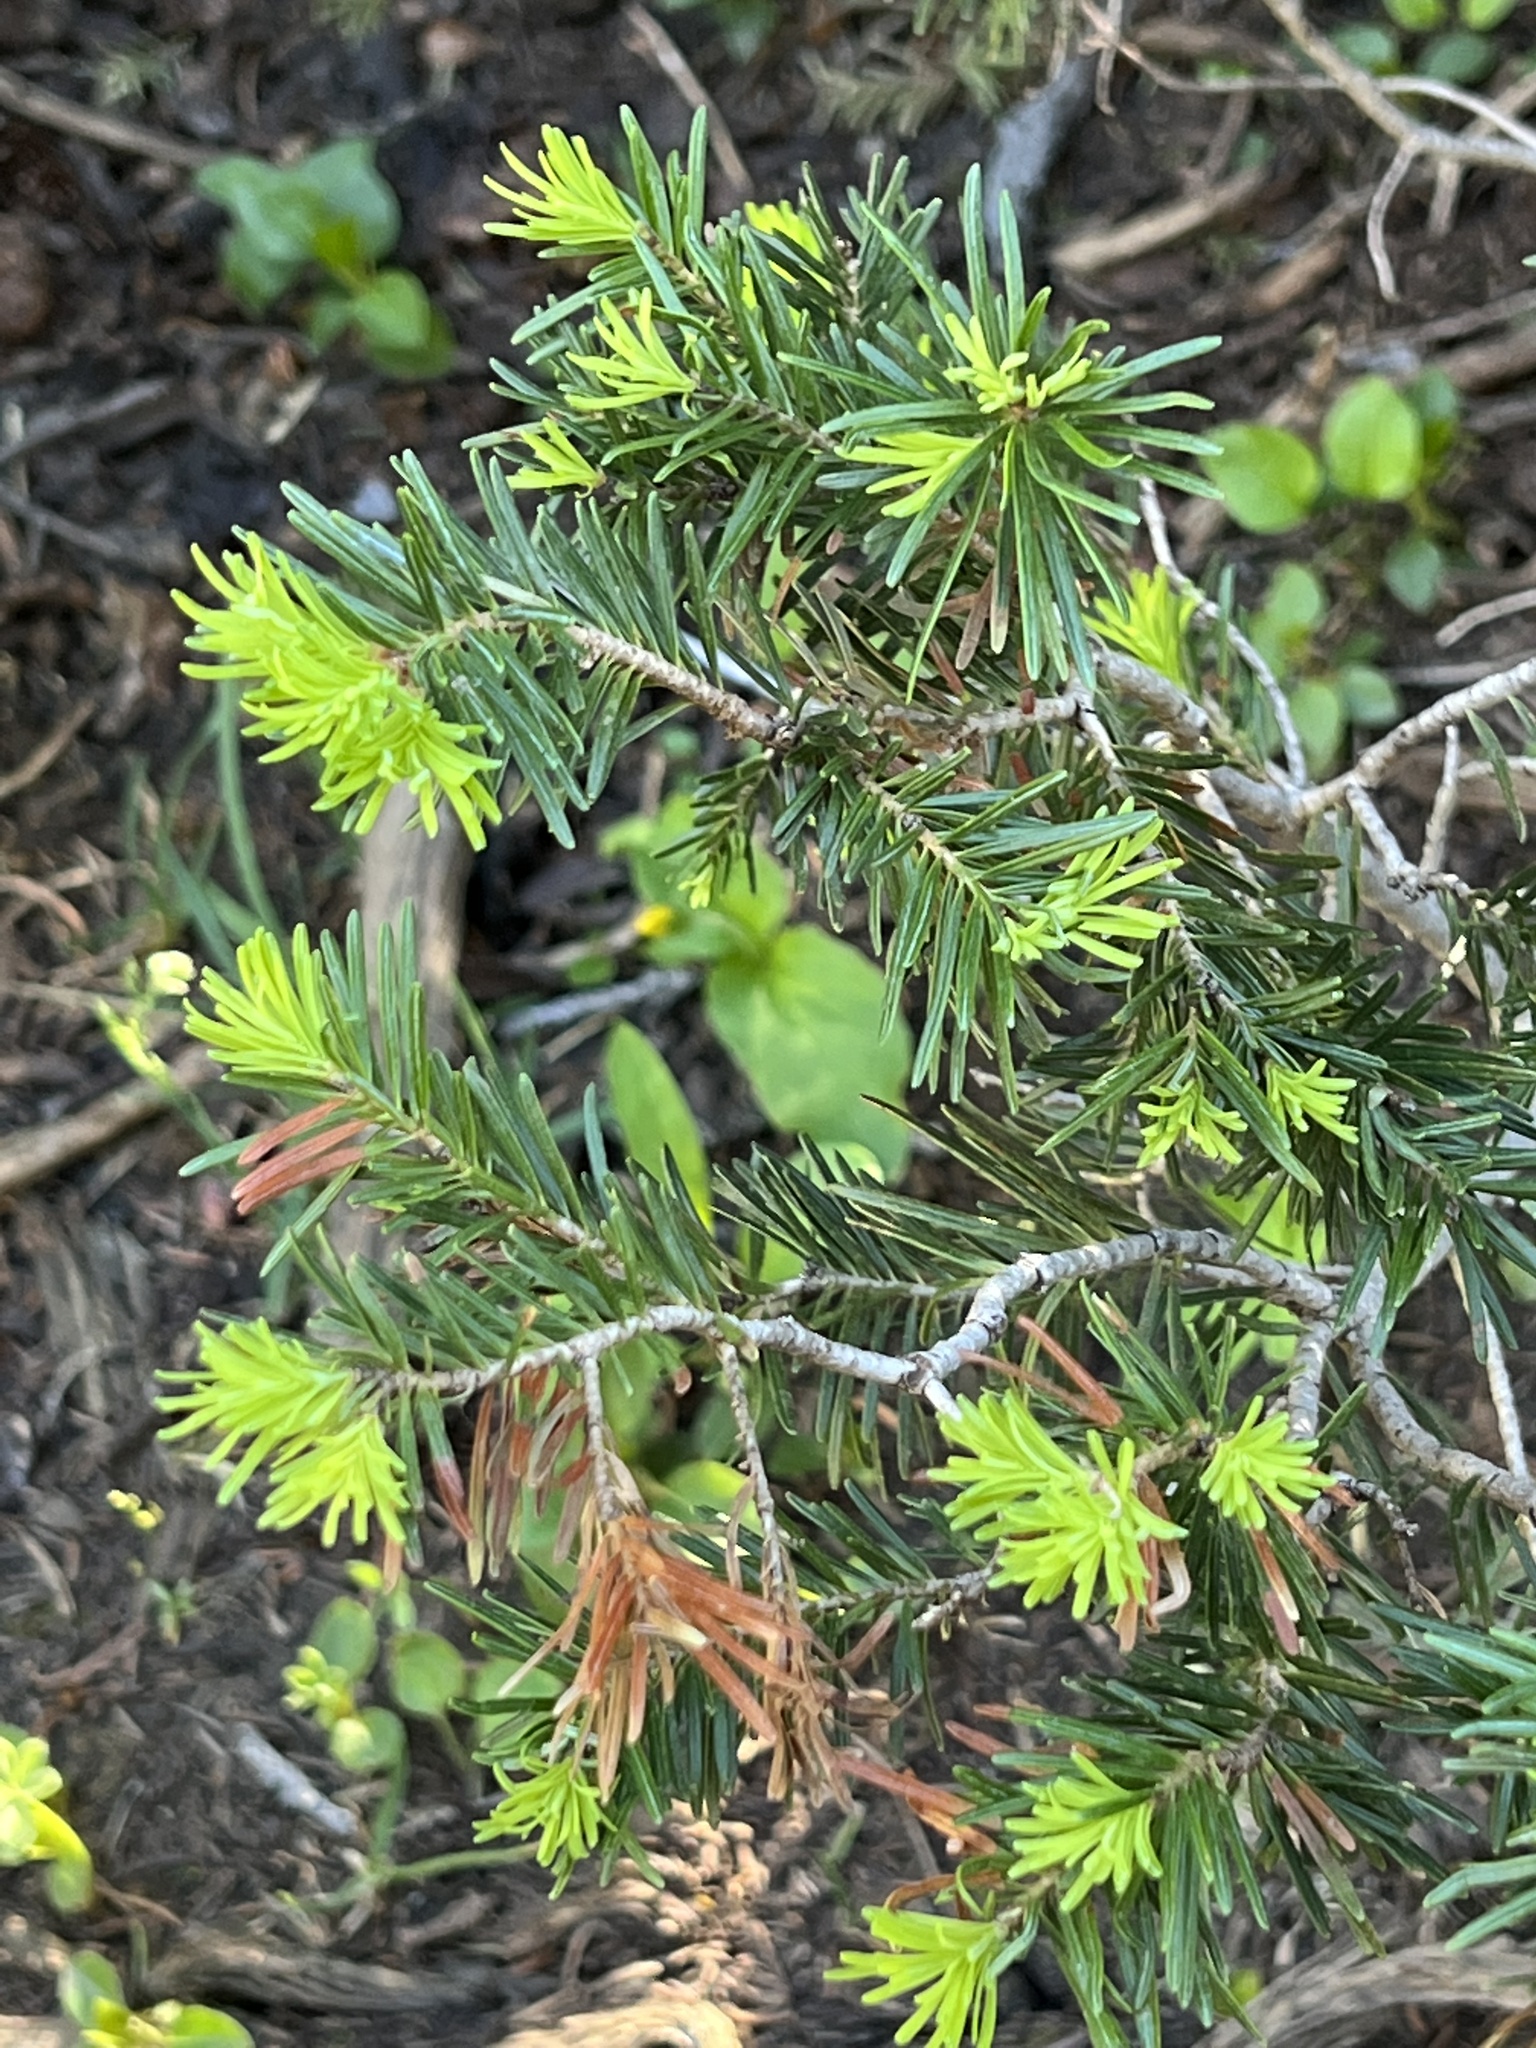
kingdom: Plantae
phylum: Tracheophyta
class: Pinopsida
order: Pinales
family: Pinaceae
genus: Abies
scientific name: Abies lasiocarpa
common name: Subalpine fir
